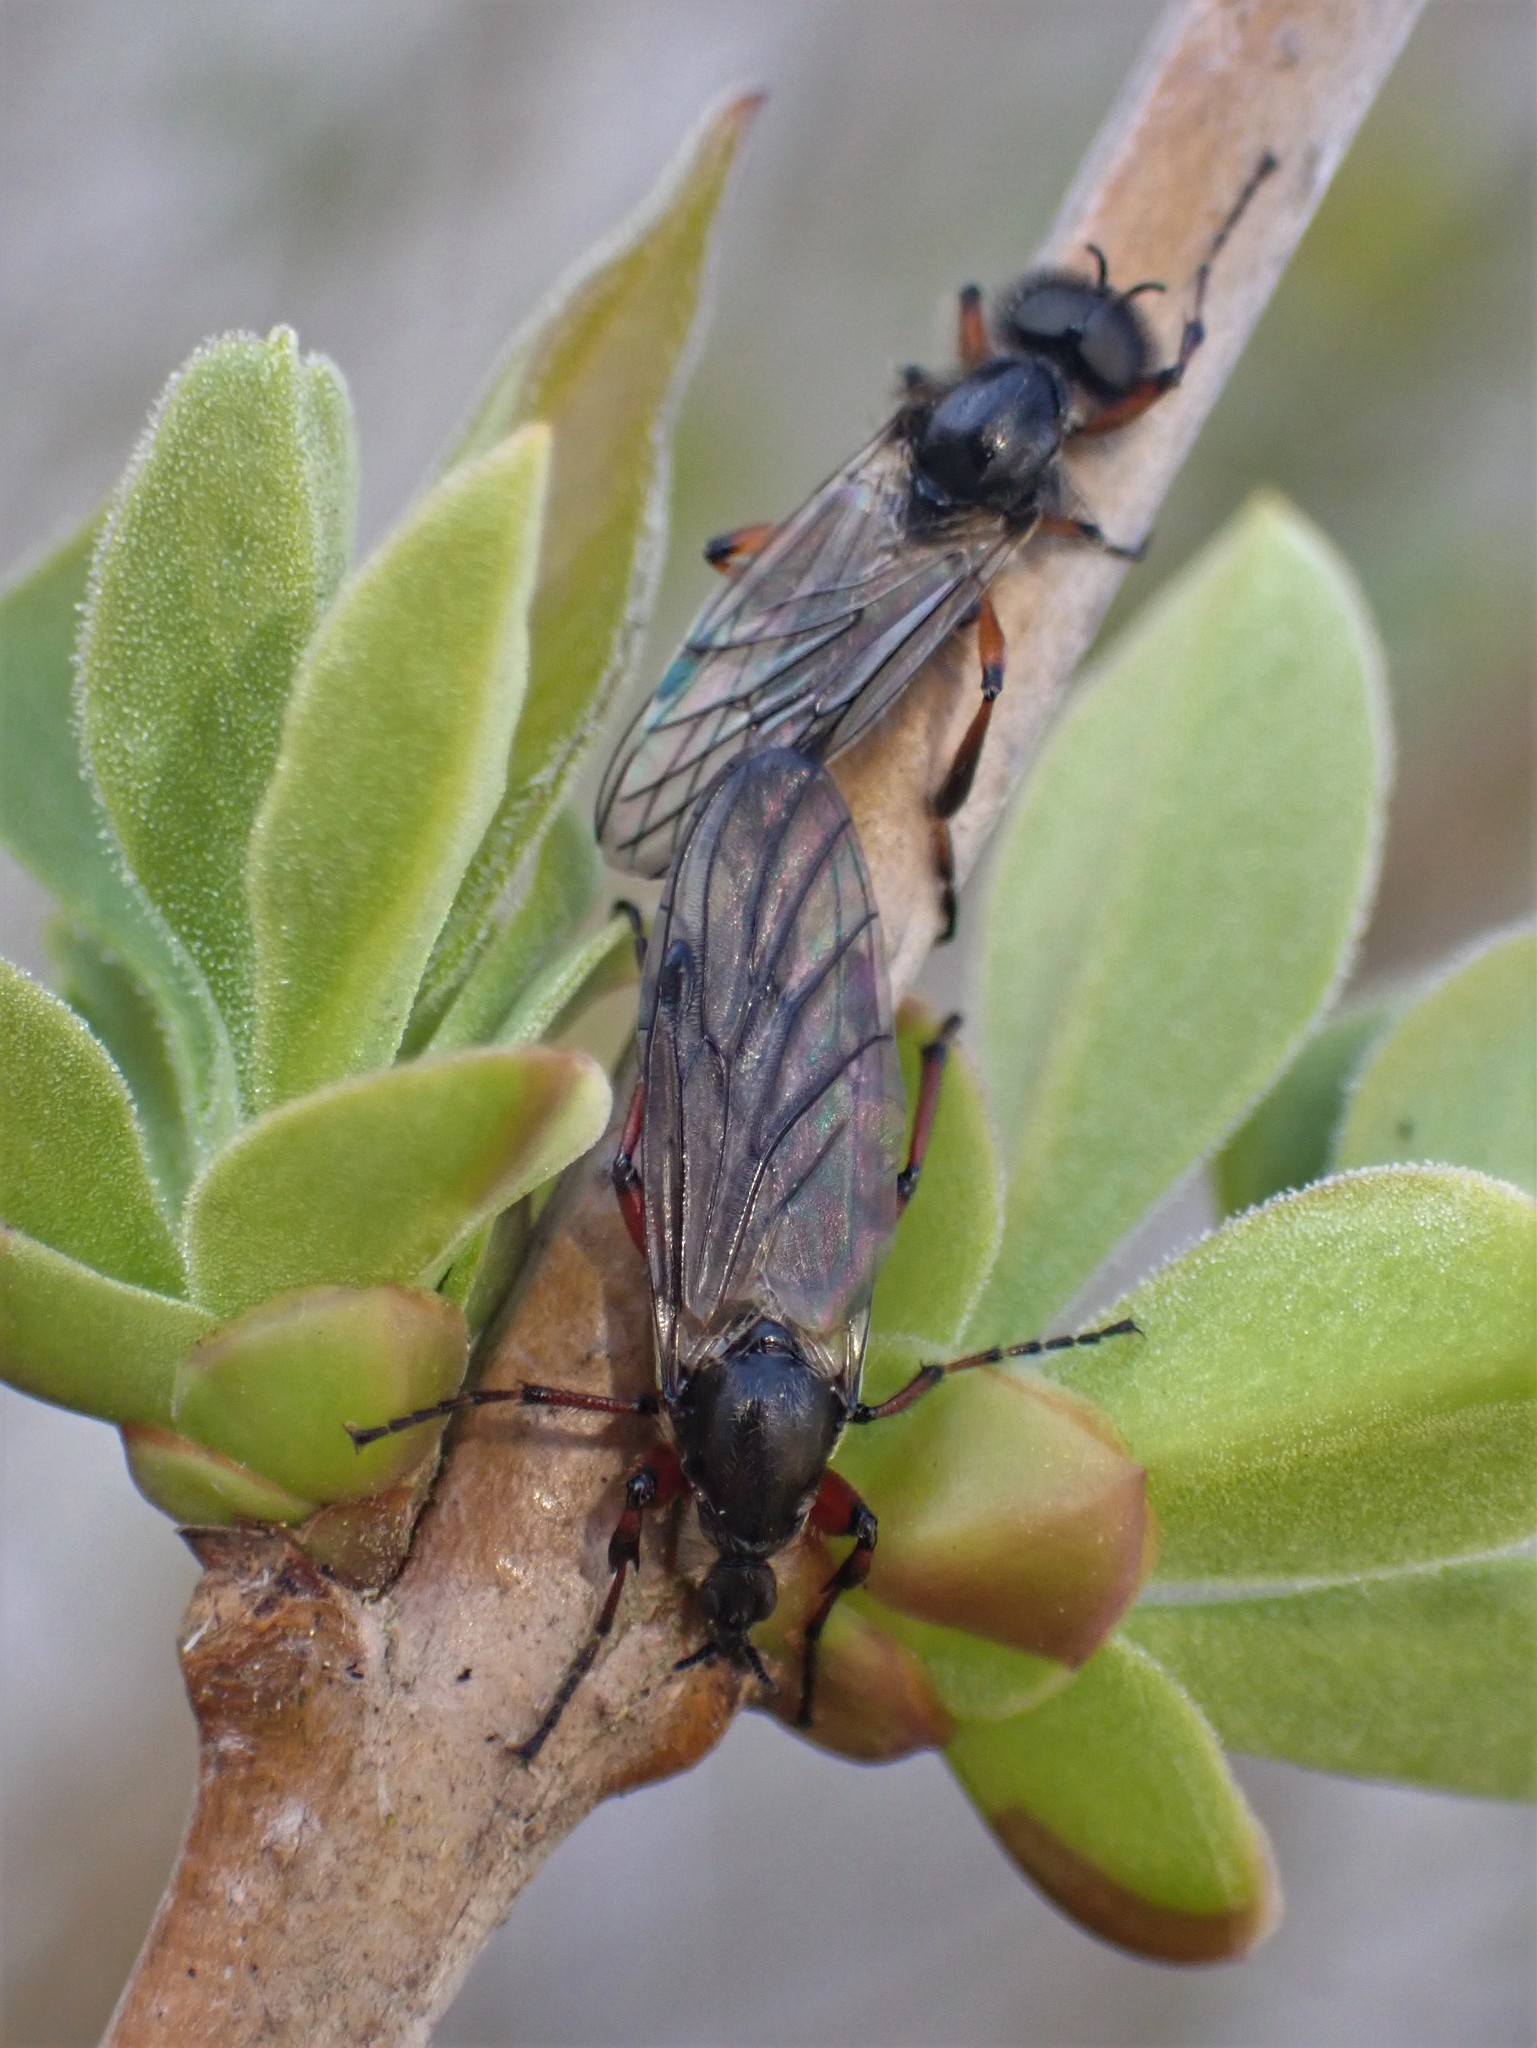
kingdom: Animalia
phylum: Arthropoda
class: Insecta
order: Diptera
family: Bibionidae
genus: Bibio
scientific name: Bibio
